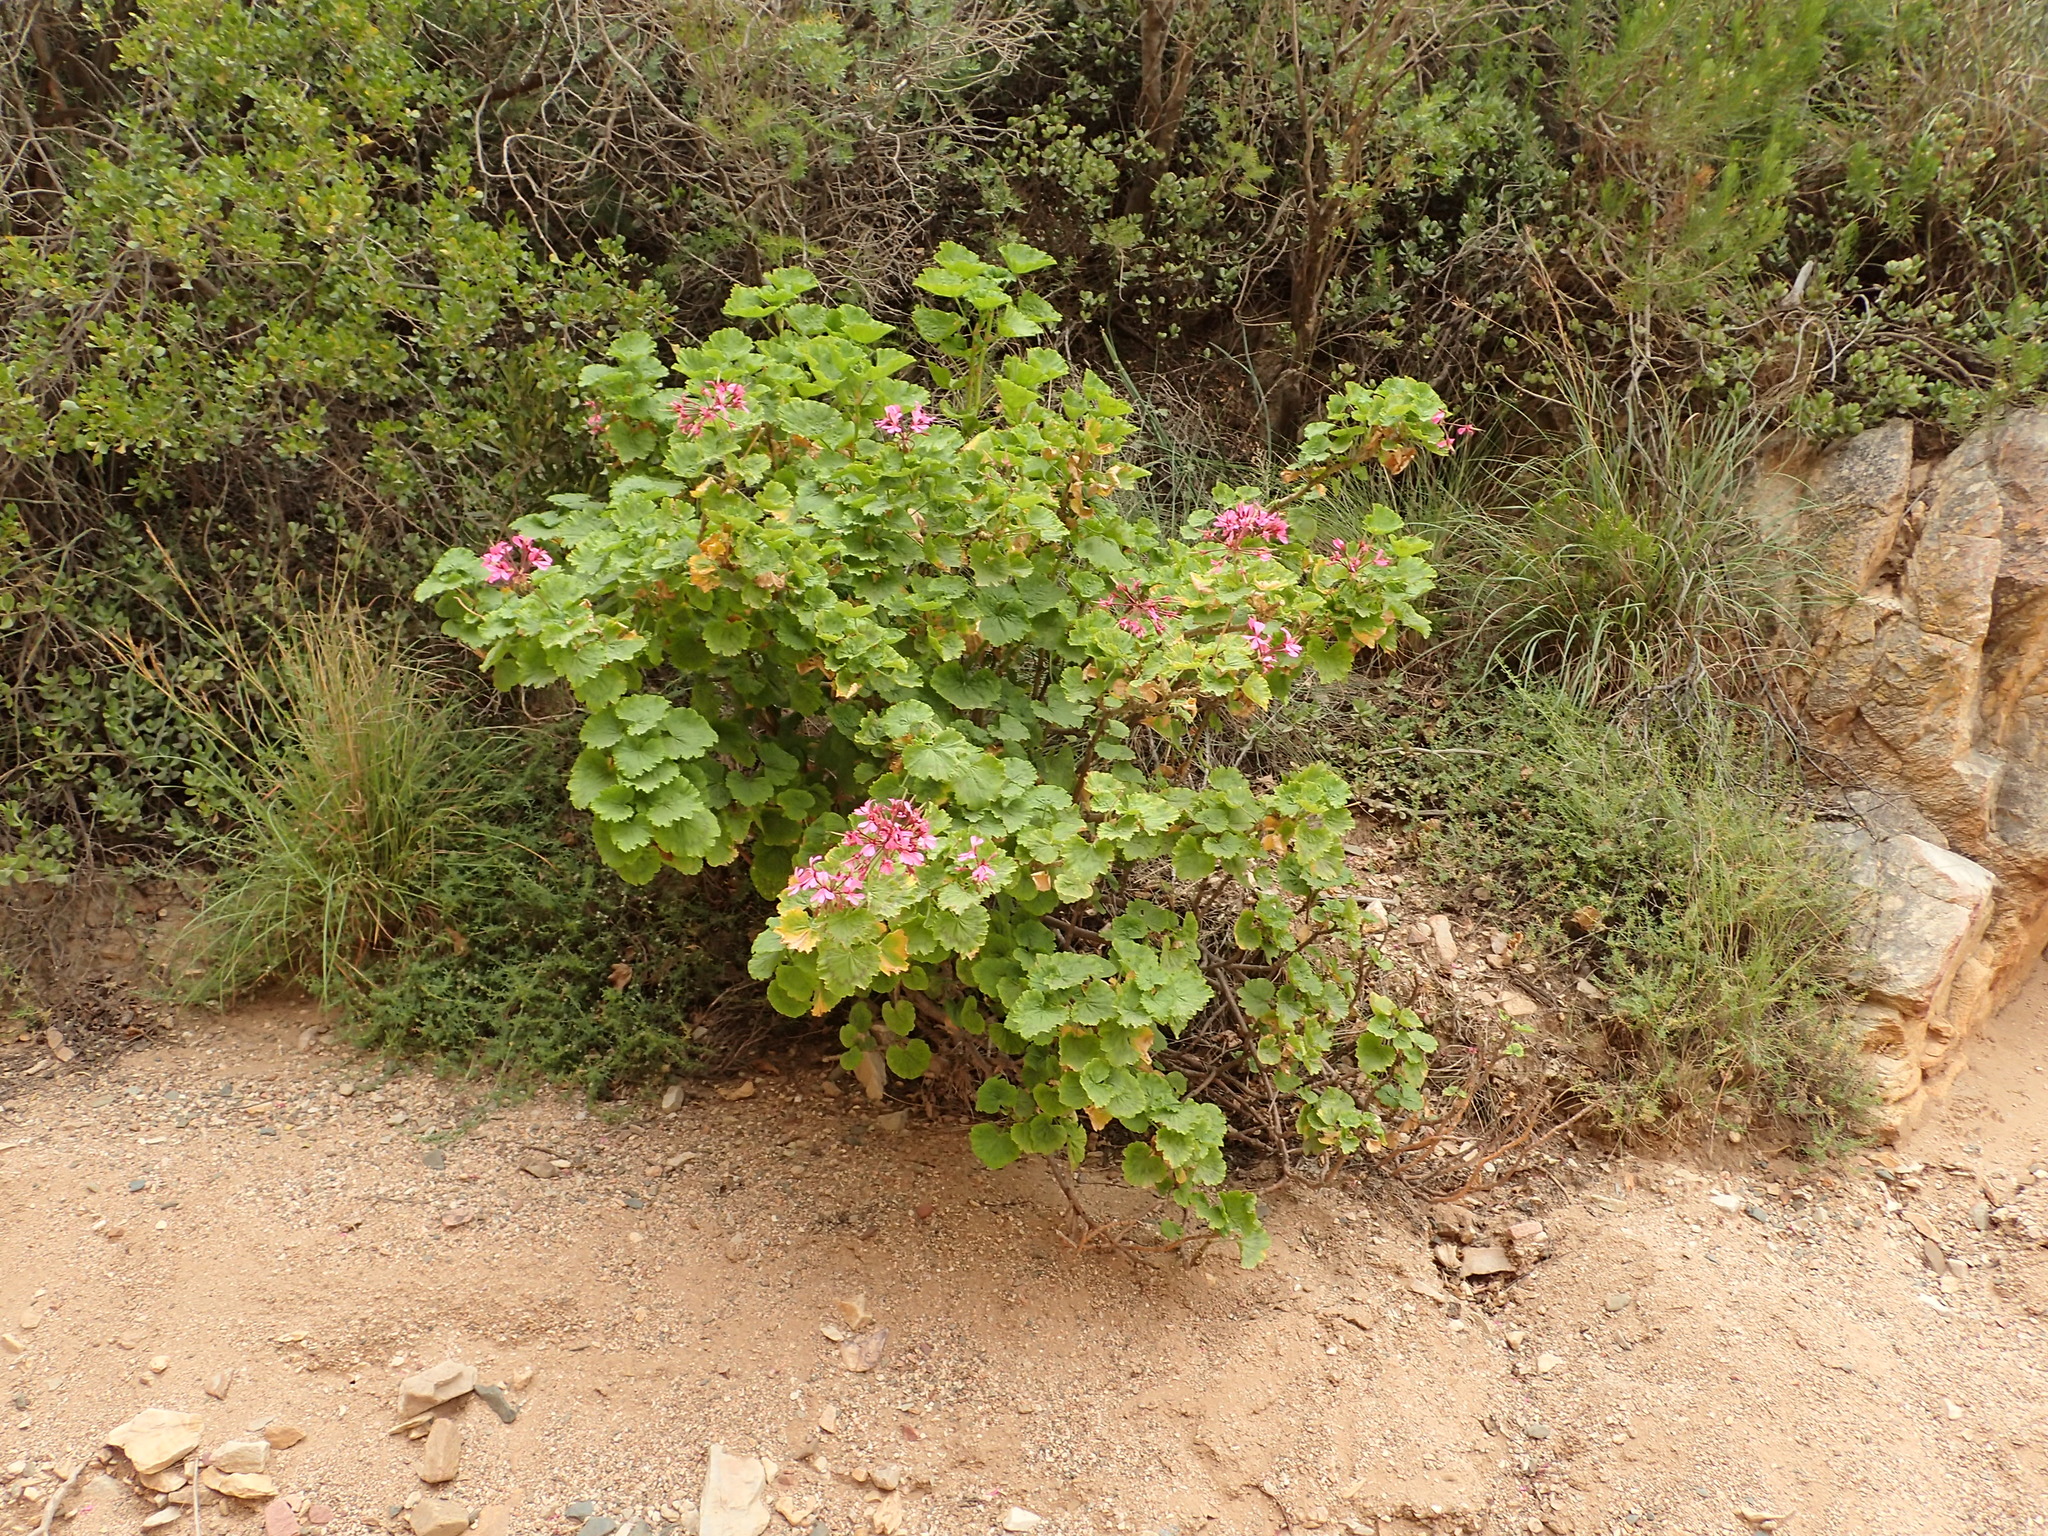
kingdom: Plantae
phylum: Tracheophyta
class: Magnoliopsida
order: Geraniales
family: Geraniaceae
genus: Pelargonium
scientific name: Pelargonium zonale
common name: Horseshoe geranium
